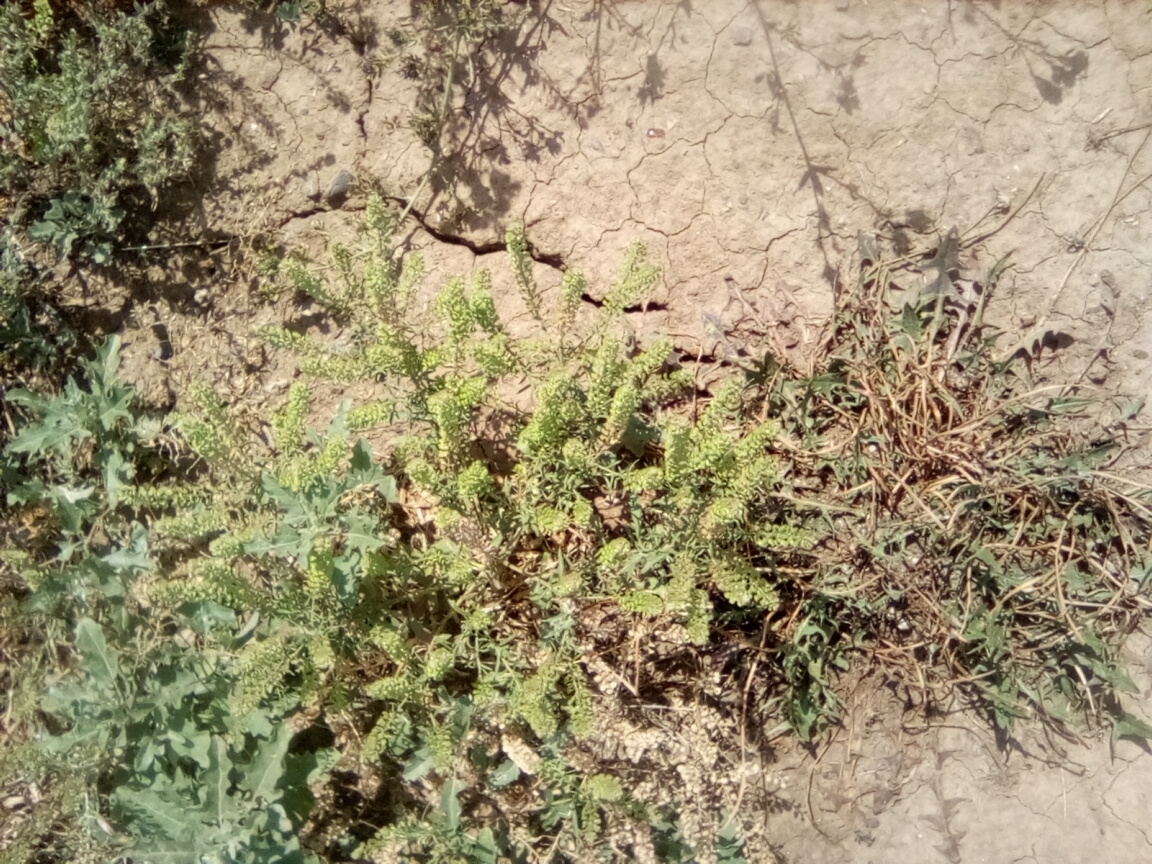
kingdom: Plantae
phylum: Tracheophyta
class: Magnoliopsida
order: Brassicales
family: Brassicaceae
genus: Lepidium
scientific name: Lepidium densiflorum
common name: Miner's pepperwort
